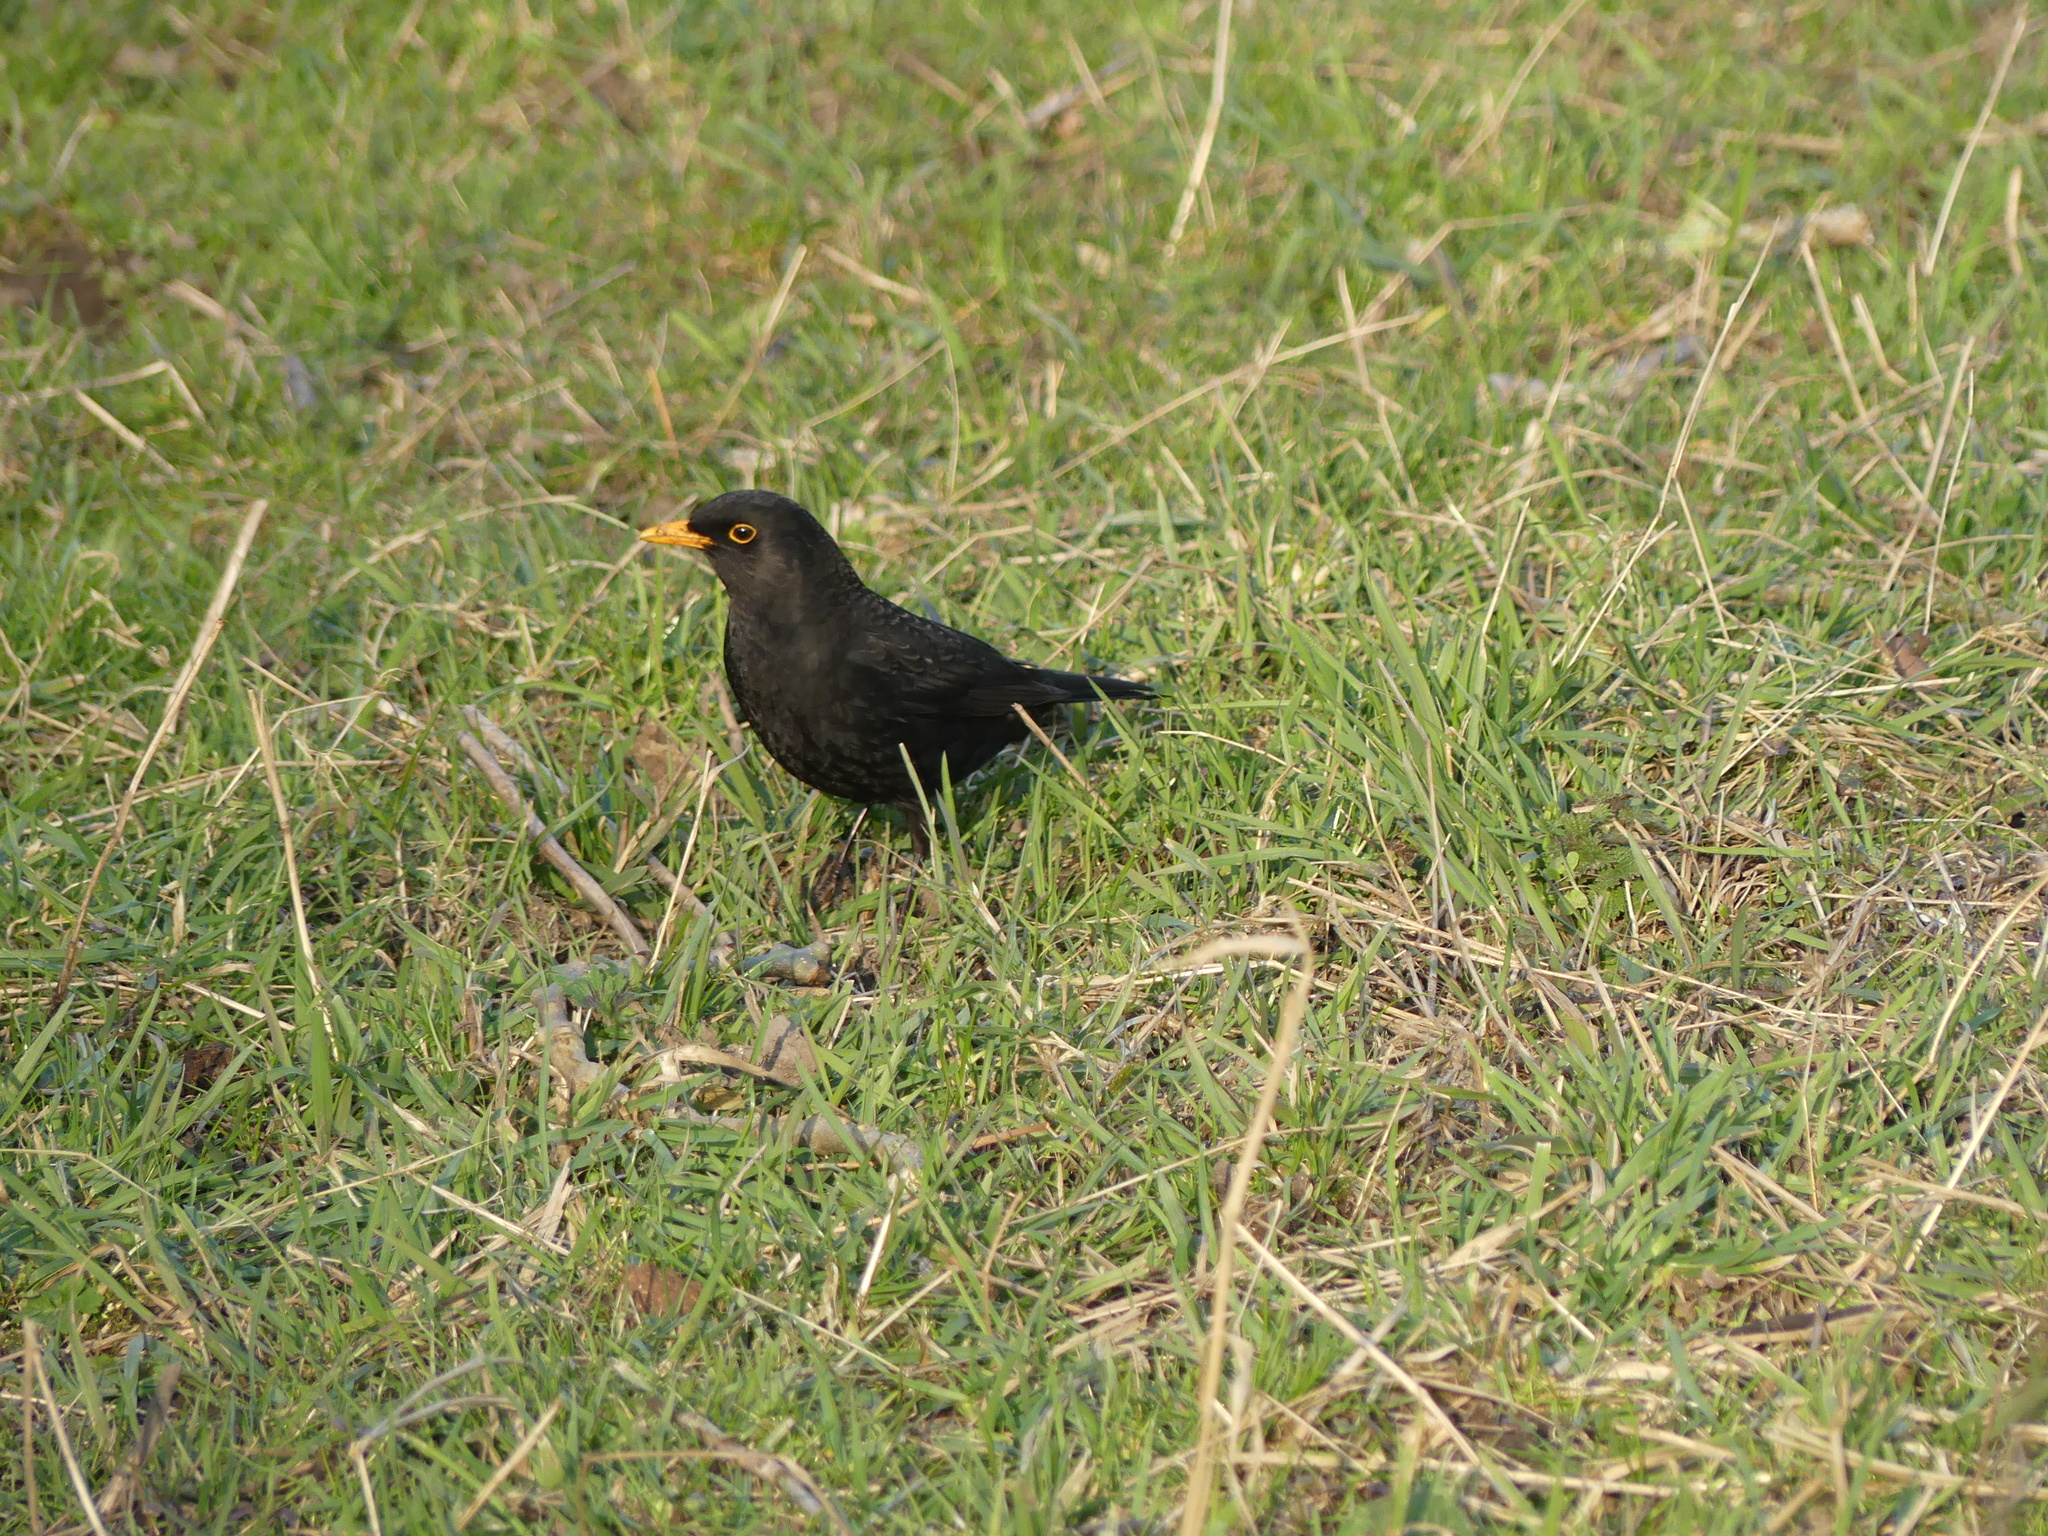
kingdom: Animalia
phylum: Chordata
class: Aves
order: Passeriformes
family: Turdidae
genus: Turdus
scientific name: Turdus merula
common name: Common blackbird
